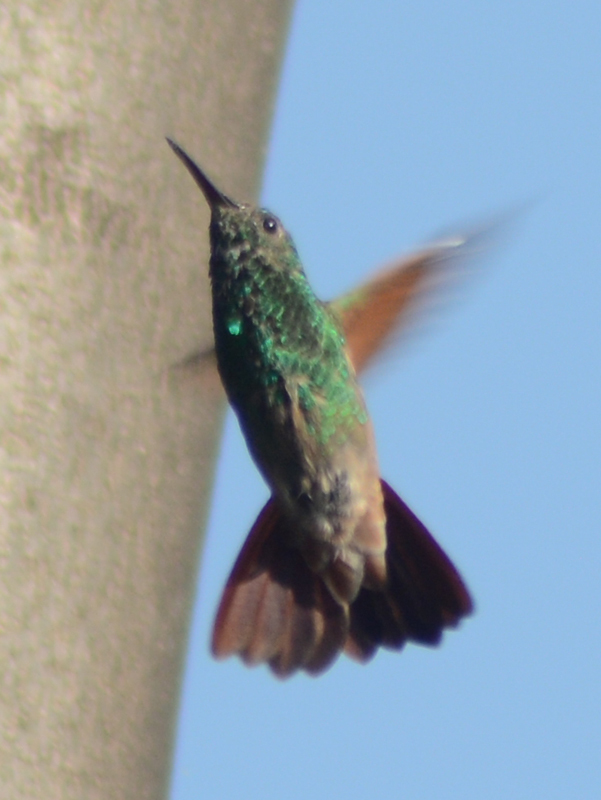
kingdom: Animalia
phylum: Chordata
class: Aves
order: Apodiformes
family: Trochilidae
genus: Saucerottia
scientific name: Saucerottia beryllina
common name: Berylline hummingbird
